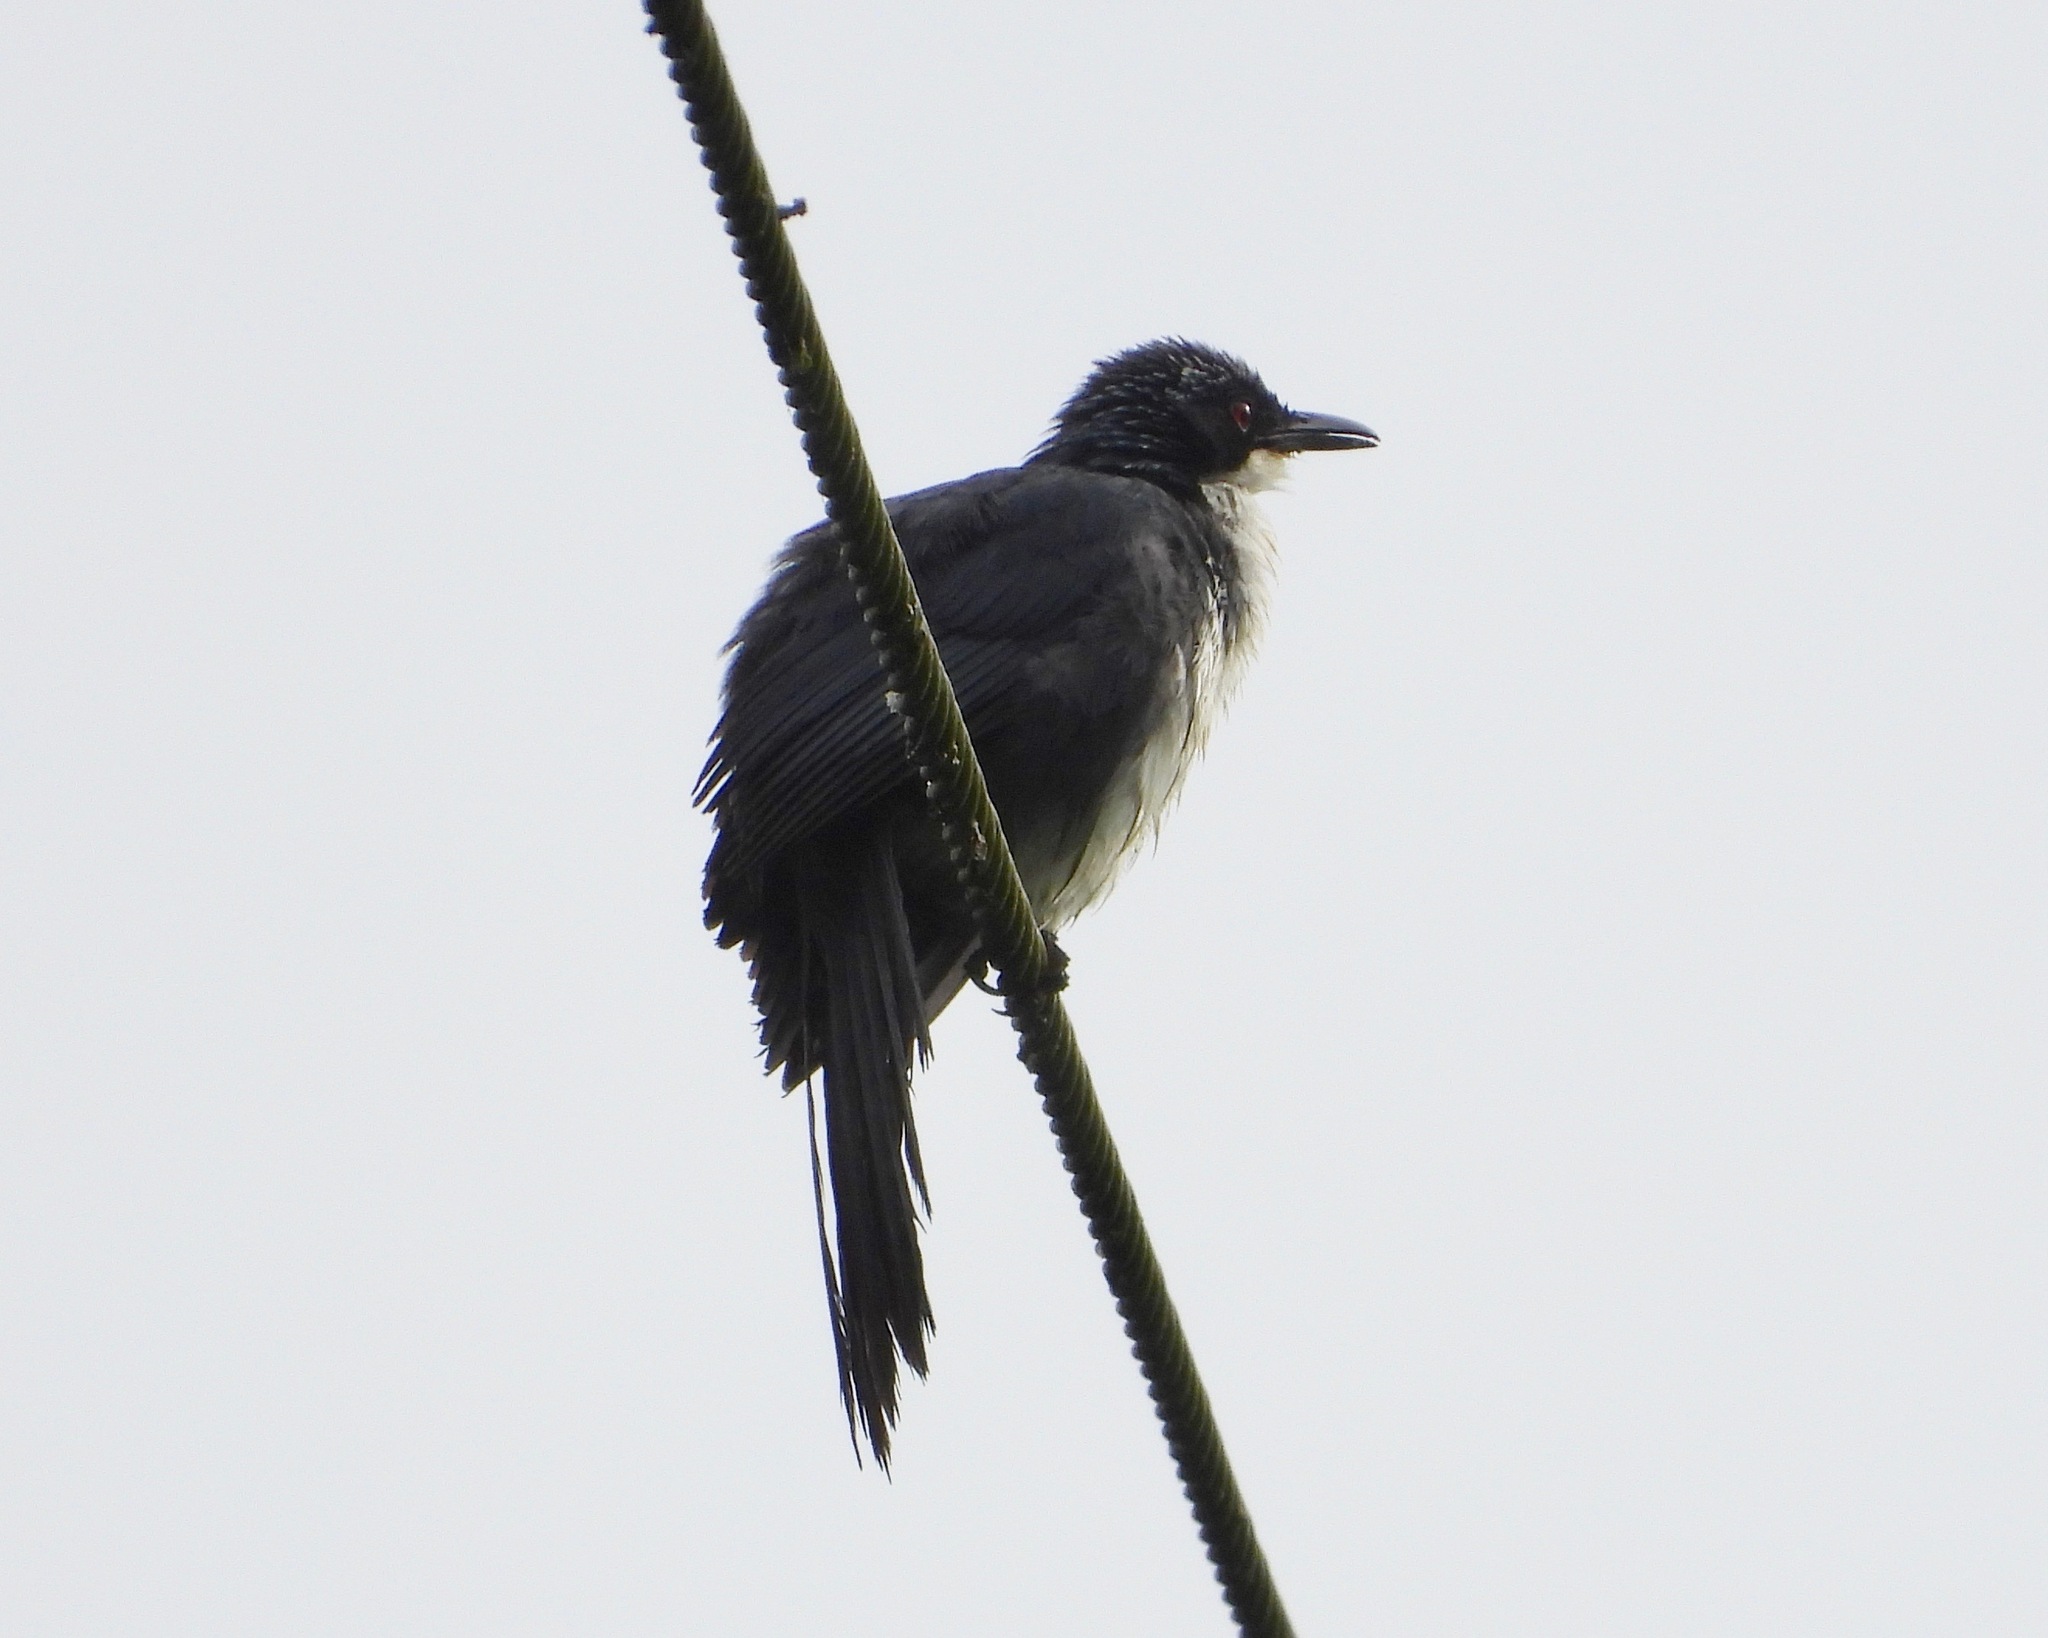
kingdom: Animalia
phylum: Chordata
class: Aves
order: Passeriformes
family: Mimidae
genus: Melanotis
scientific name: Melanotis hypoleucus
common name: Blue-and-white mockingbird
